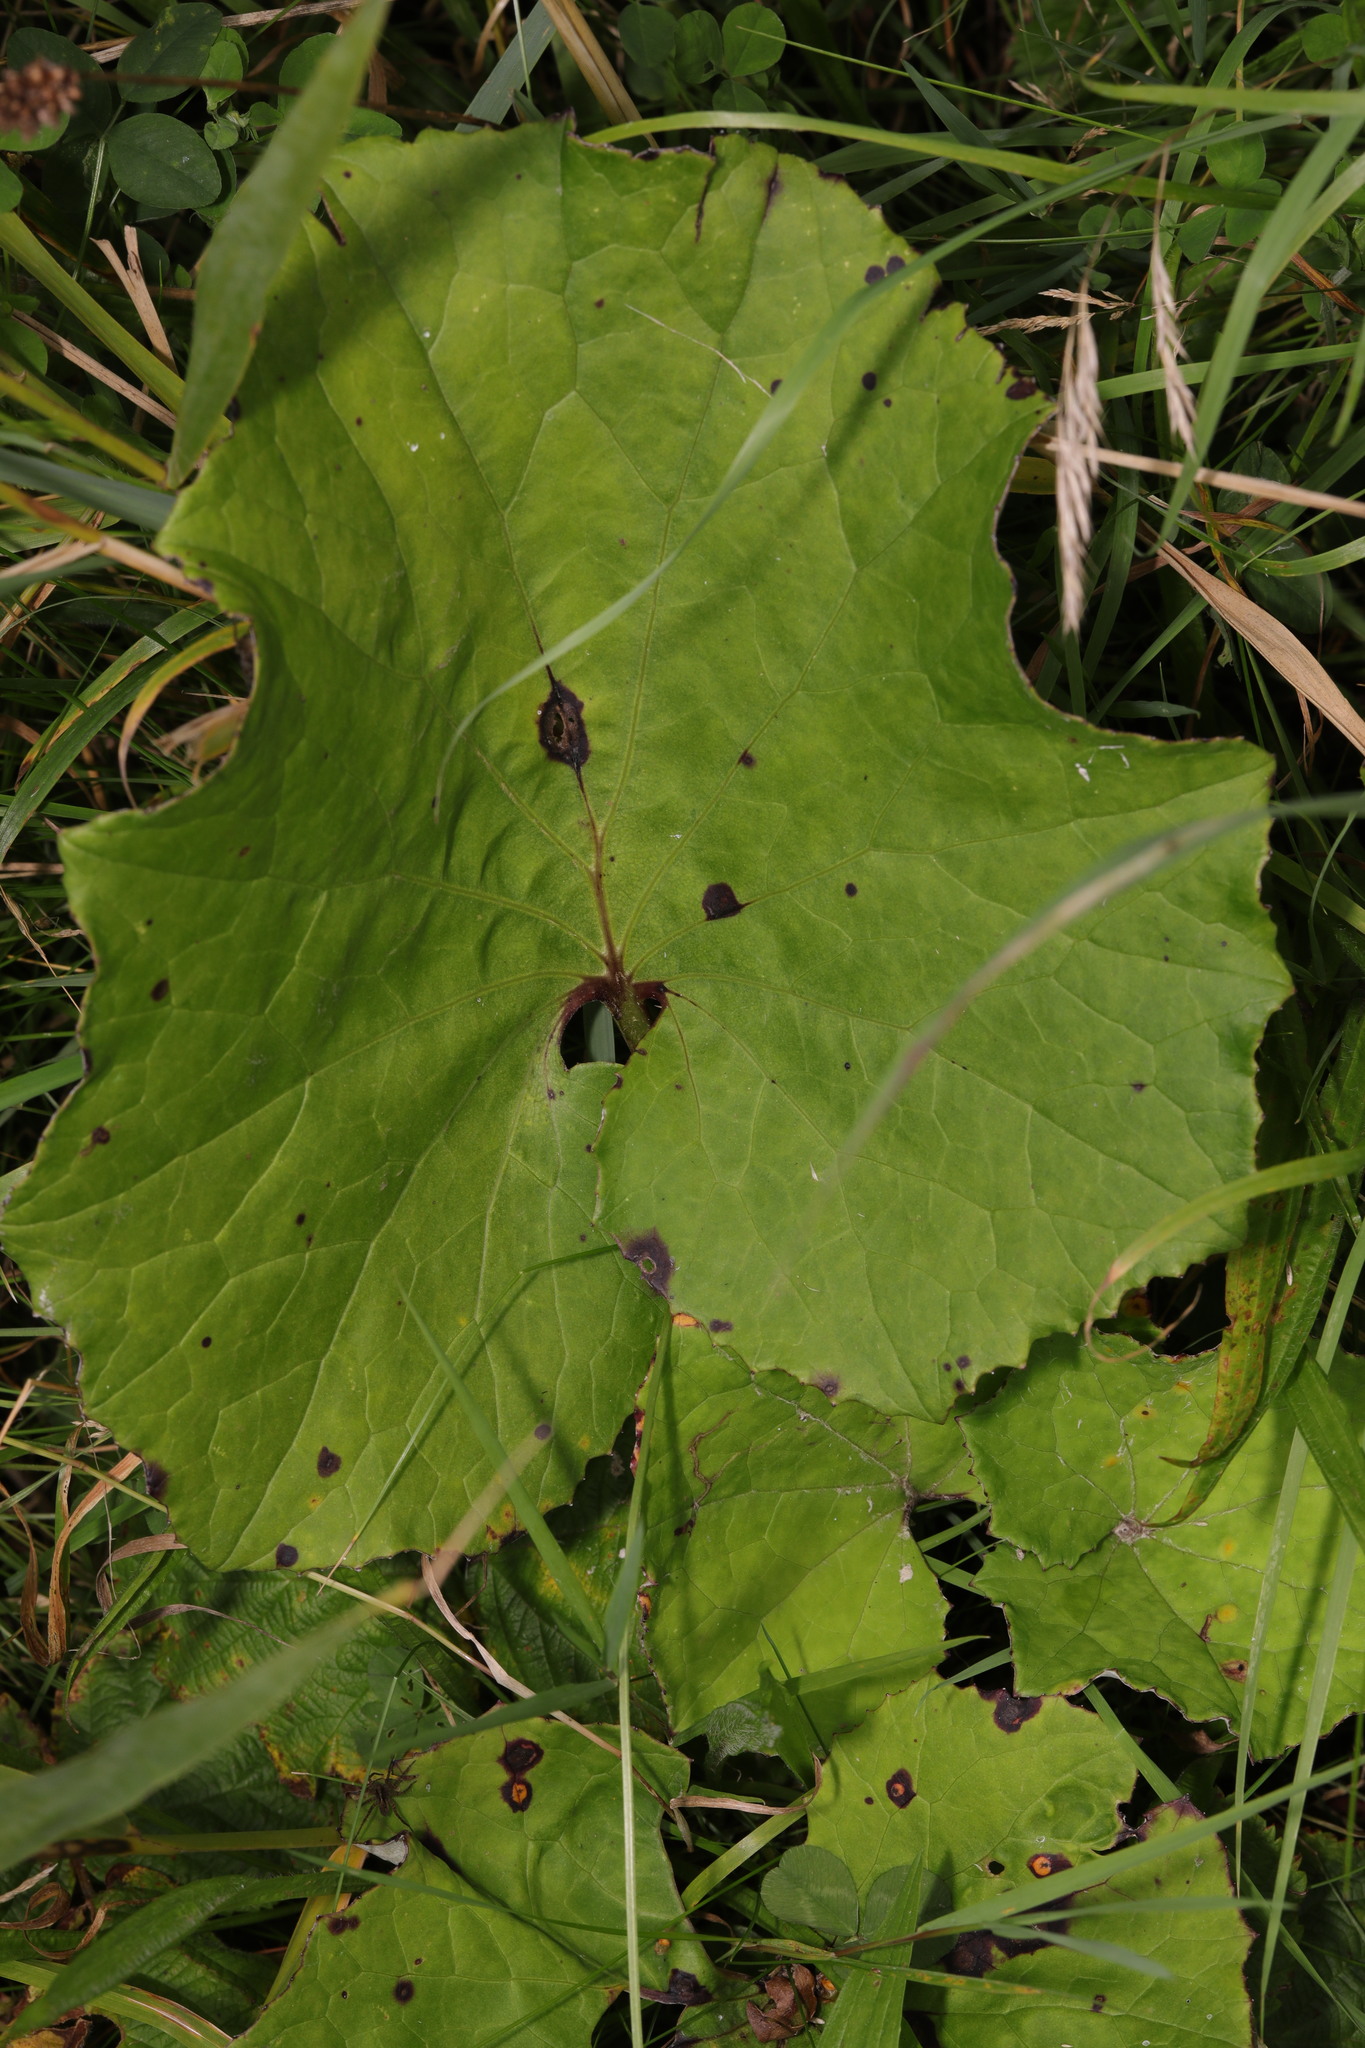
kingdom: Plantae
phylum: Tracheophyta
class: Magnoliopsida
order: Asterales
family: Asteraceae
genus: Tussilago
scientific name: Tussilago farfara
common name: Coltsfoot
